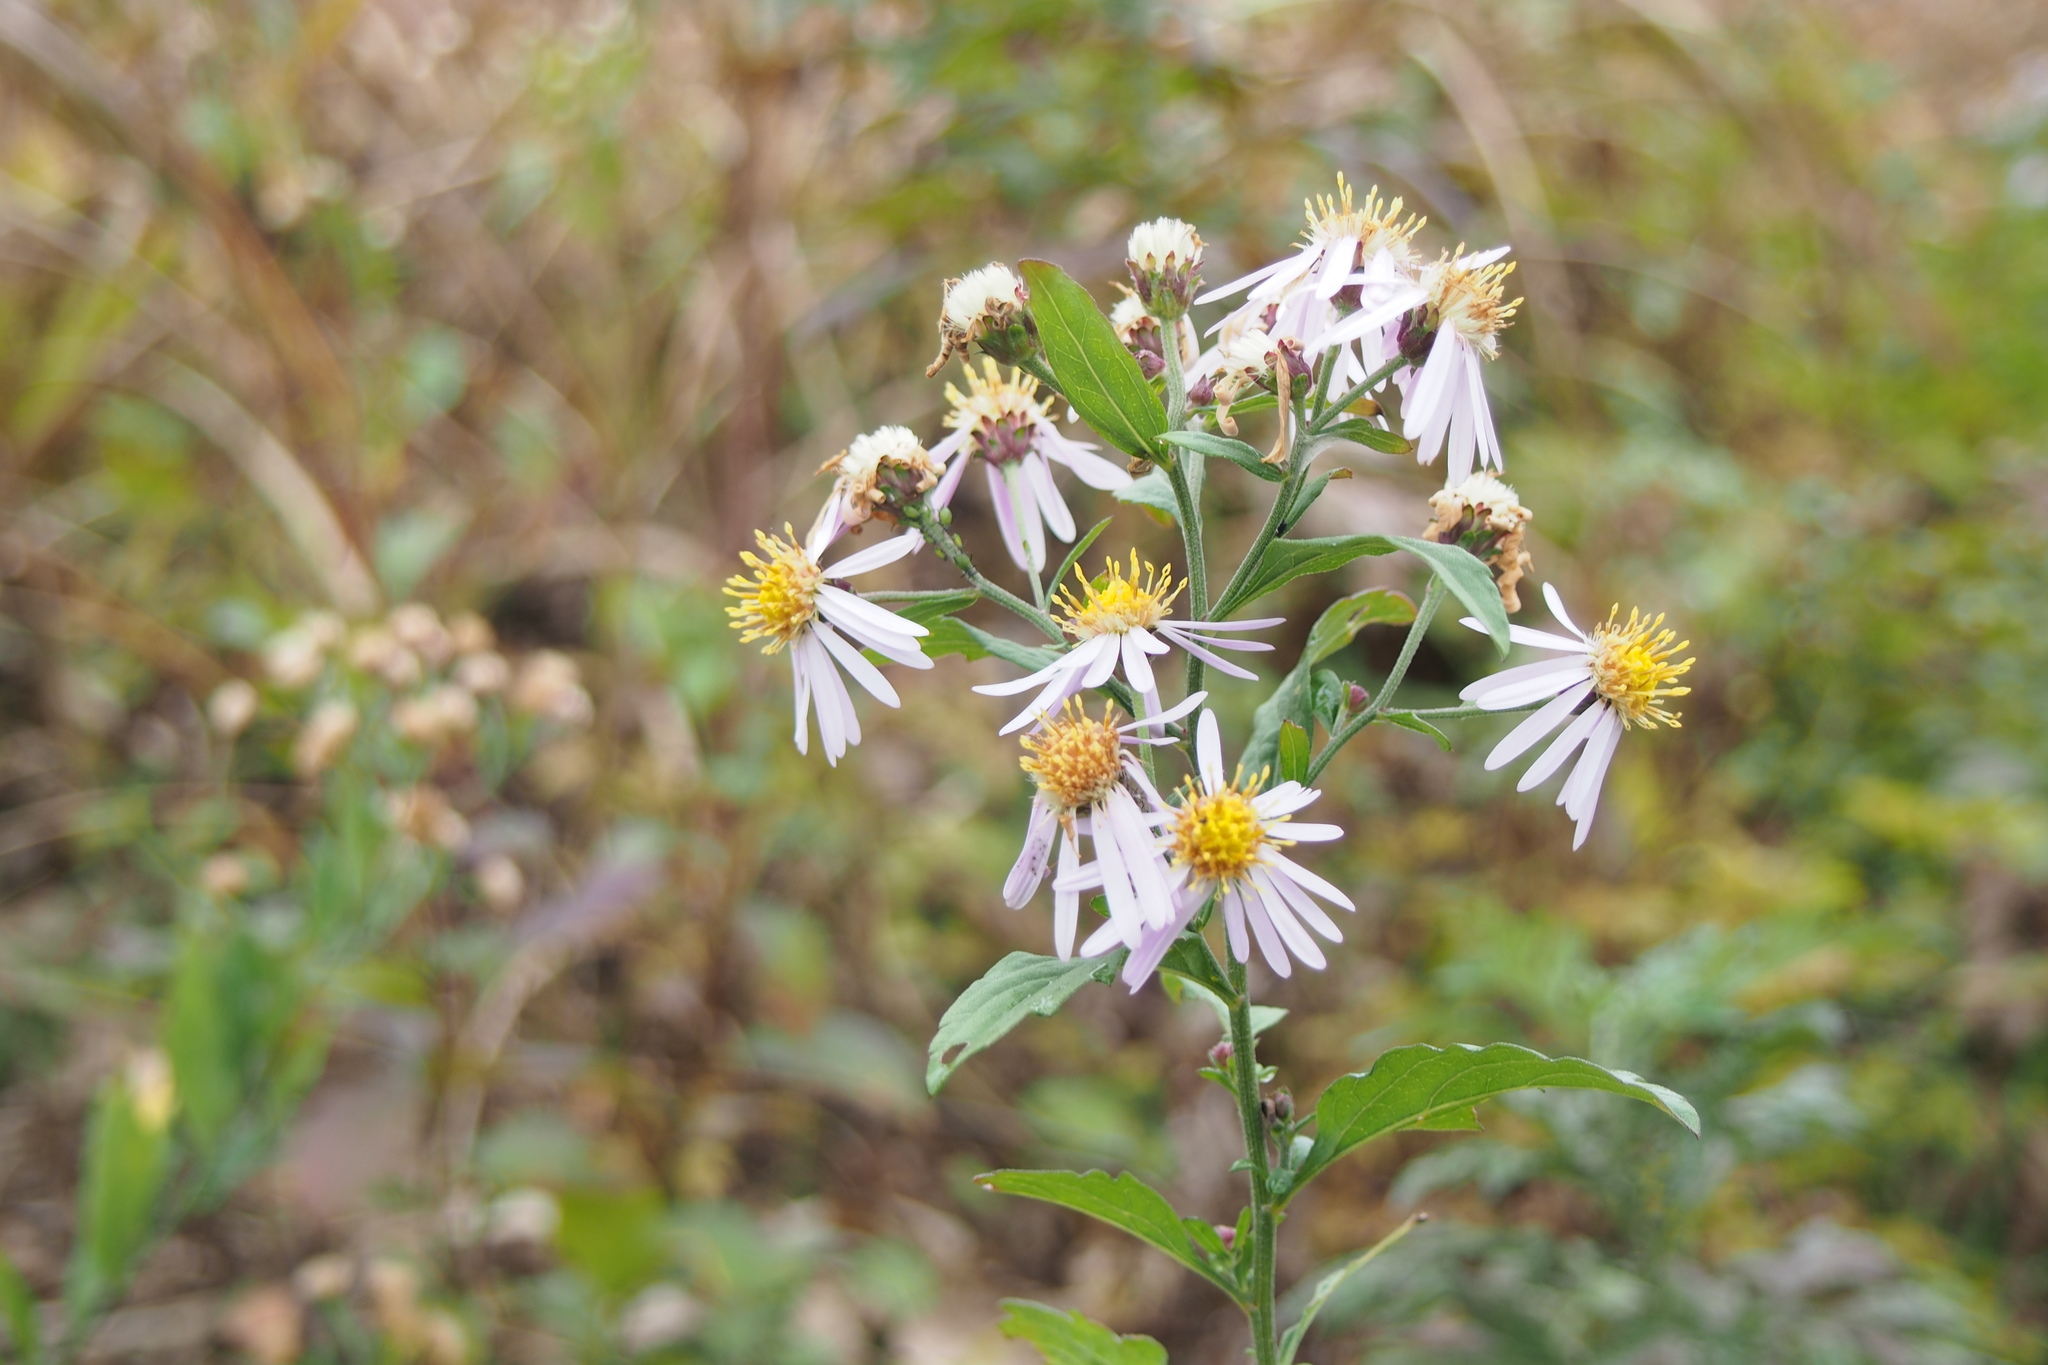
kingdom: Plantae
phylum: Tracheophyta
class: Magnoliopsida
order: Asterales
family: Asteraceae
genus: Aster
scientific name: Aster microcephalus
